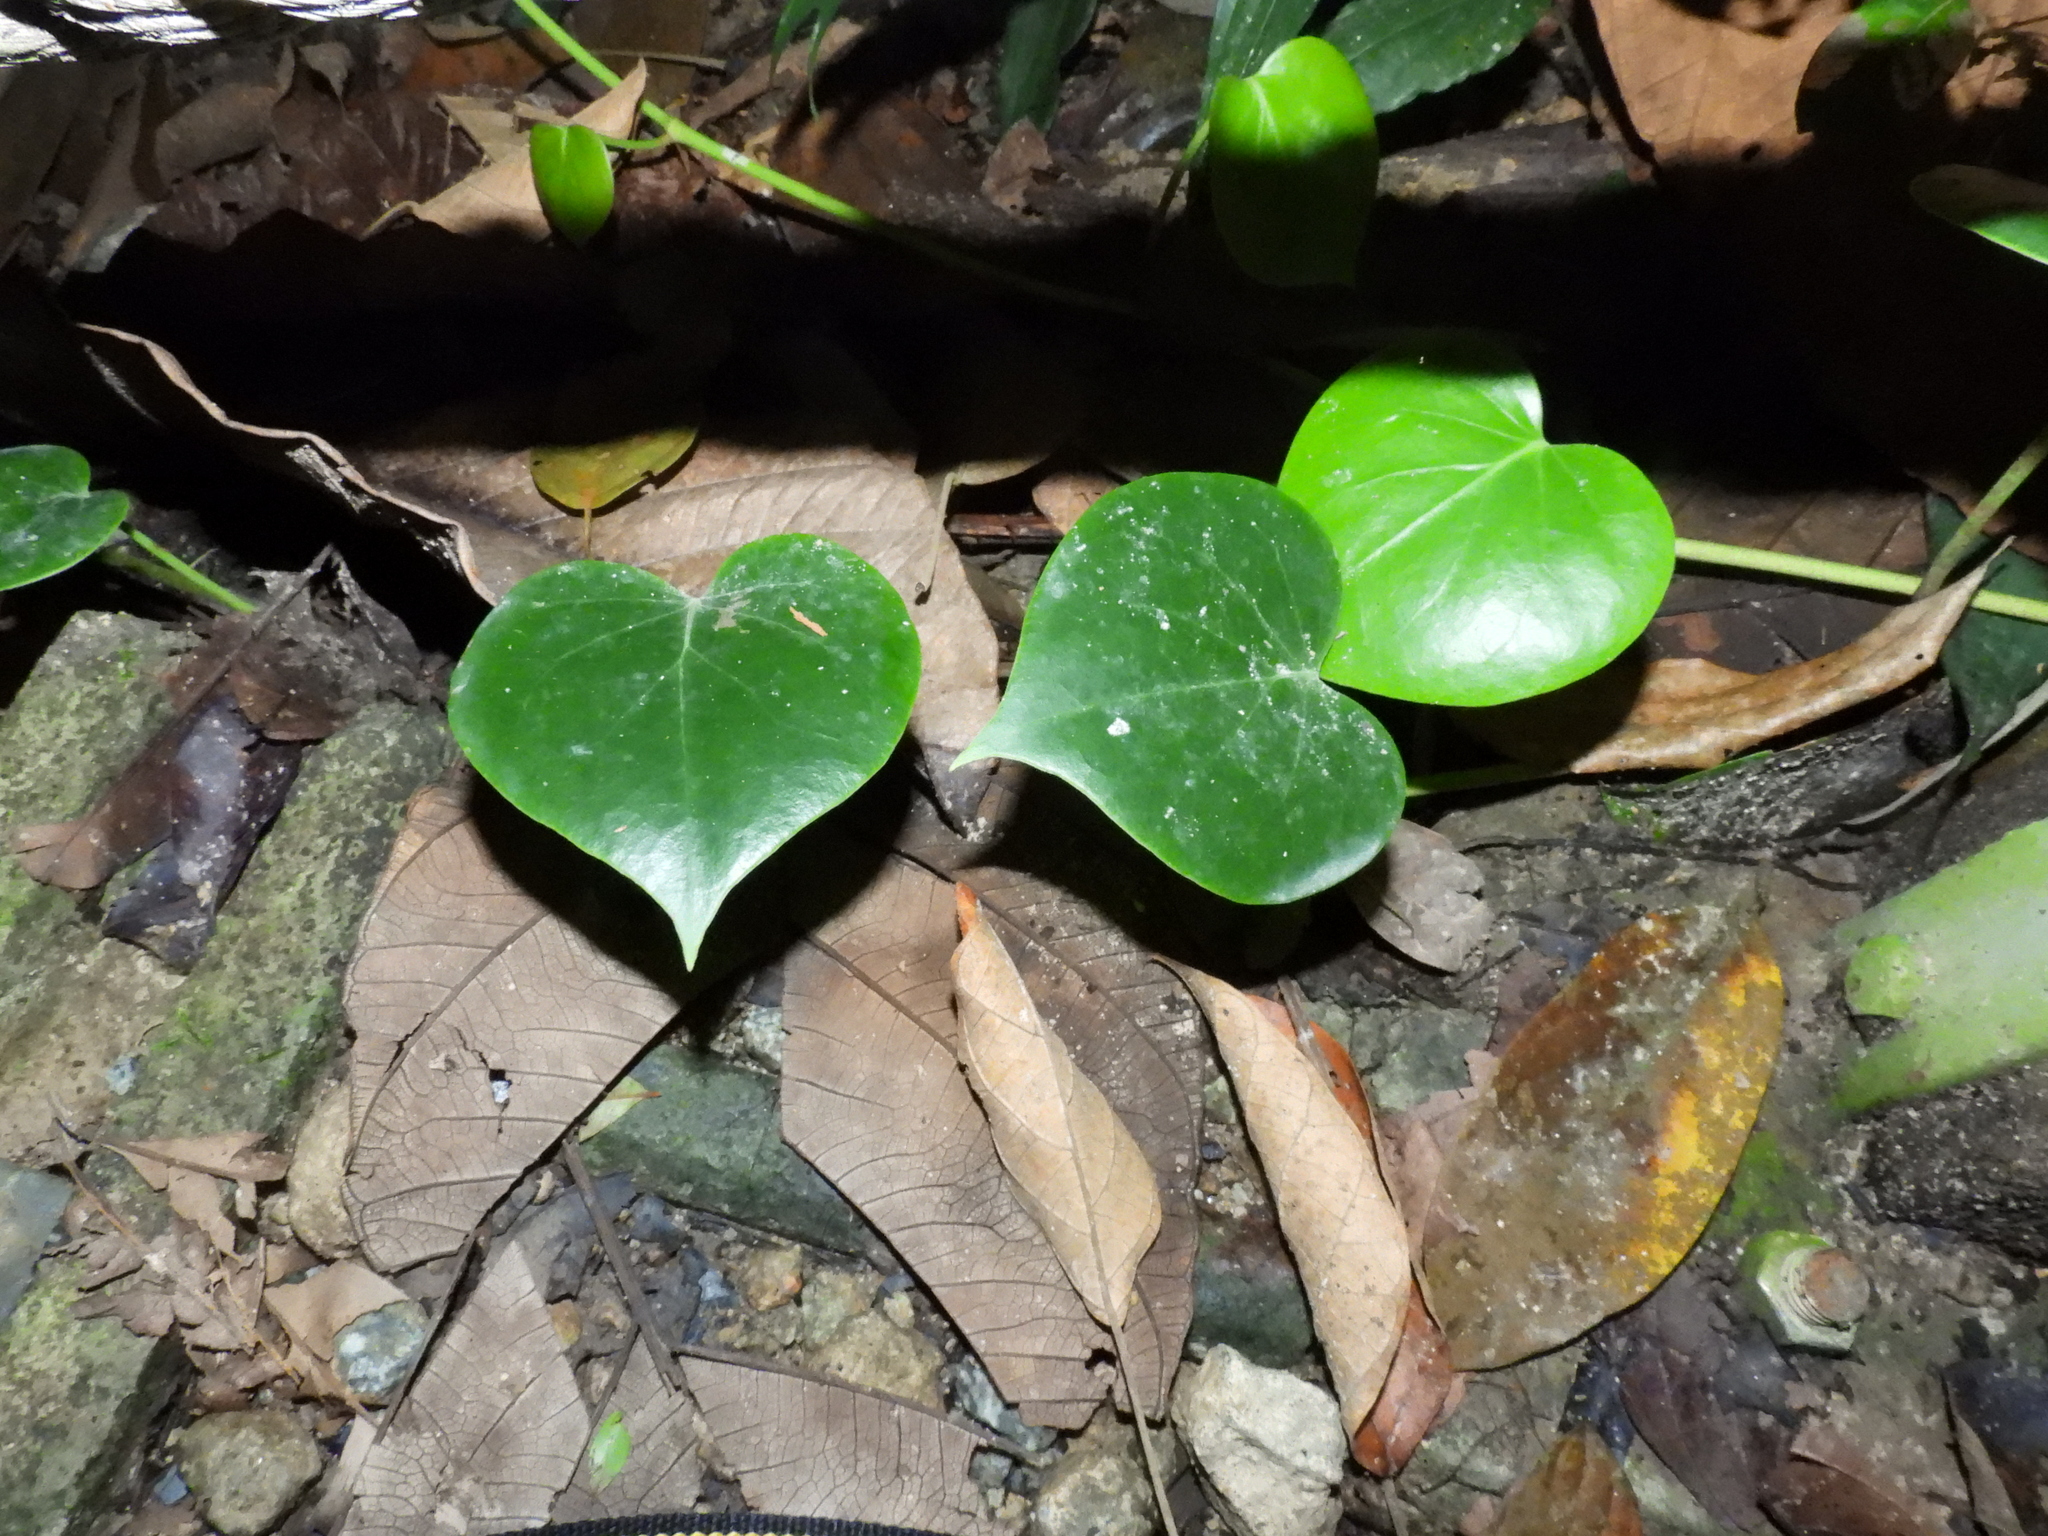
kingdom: Plantae
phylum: Tracheophyta
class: Magnoliopsida
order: Piperales
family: Piperaceae
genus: Piper
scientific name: Piper baccatum
